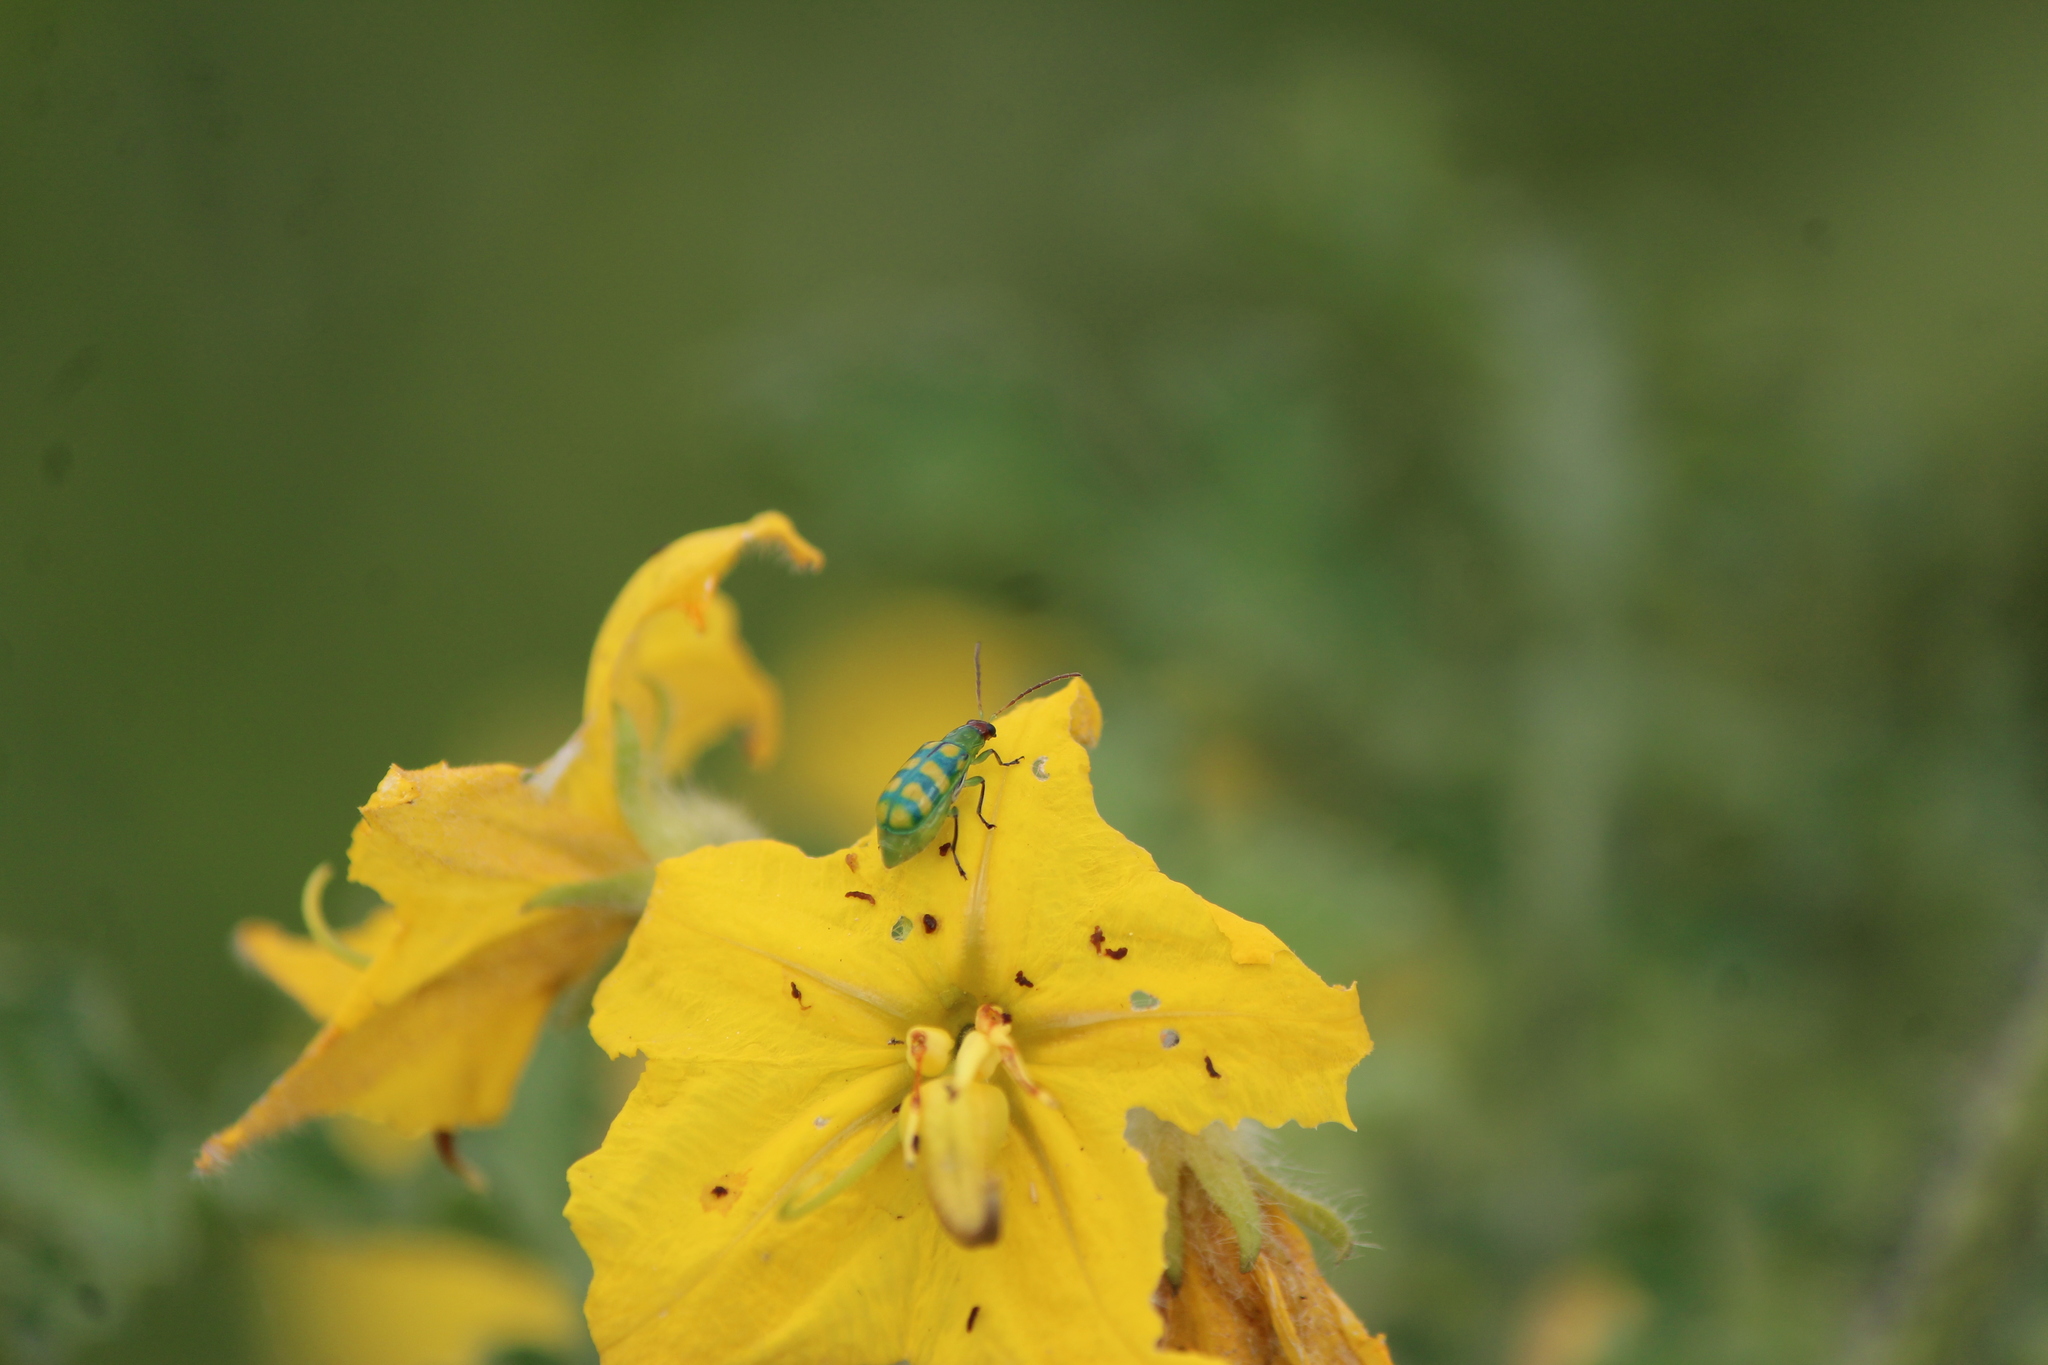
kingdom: Animalia
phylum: Arthropoda
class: Insecta
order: Coleoptera
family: Chrysomelidae
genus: Diabrotica
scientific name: Diabrotica balteata
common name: Leaf beetle
